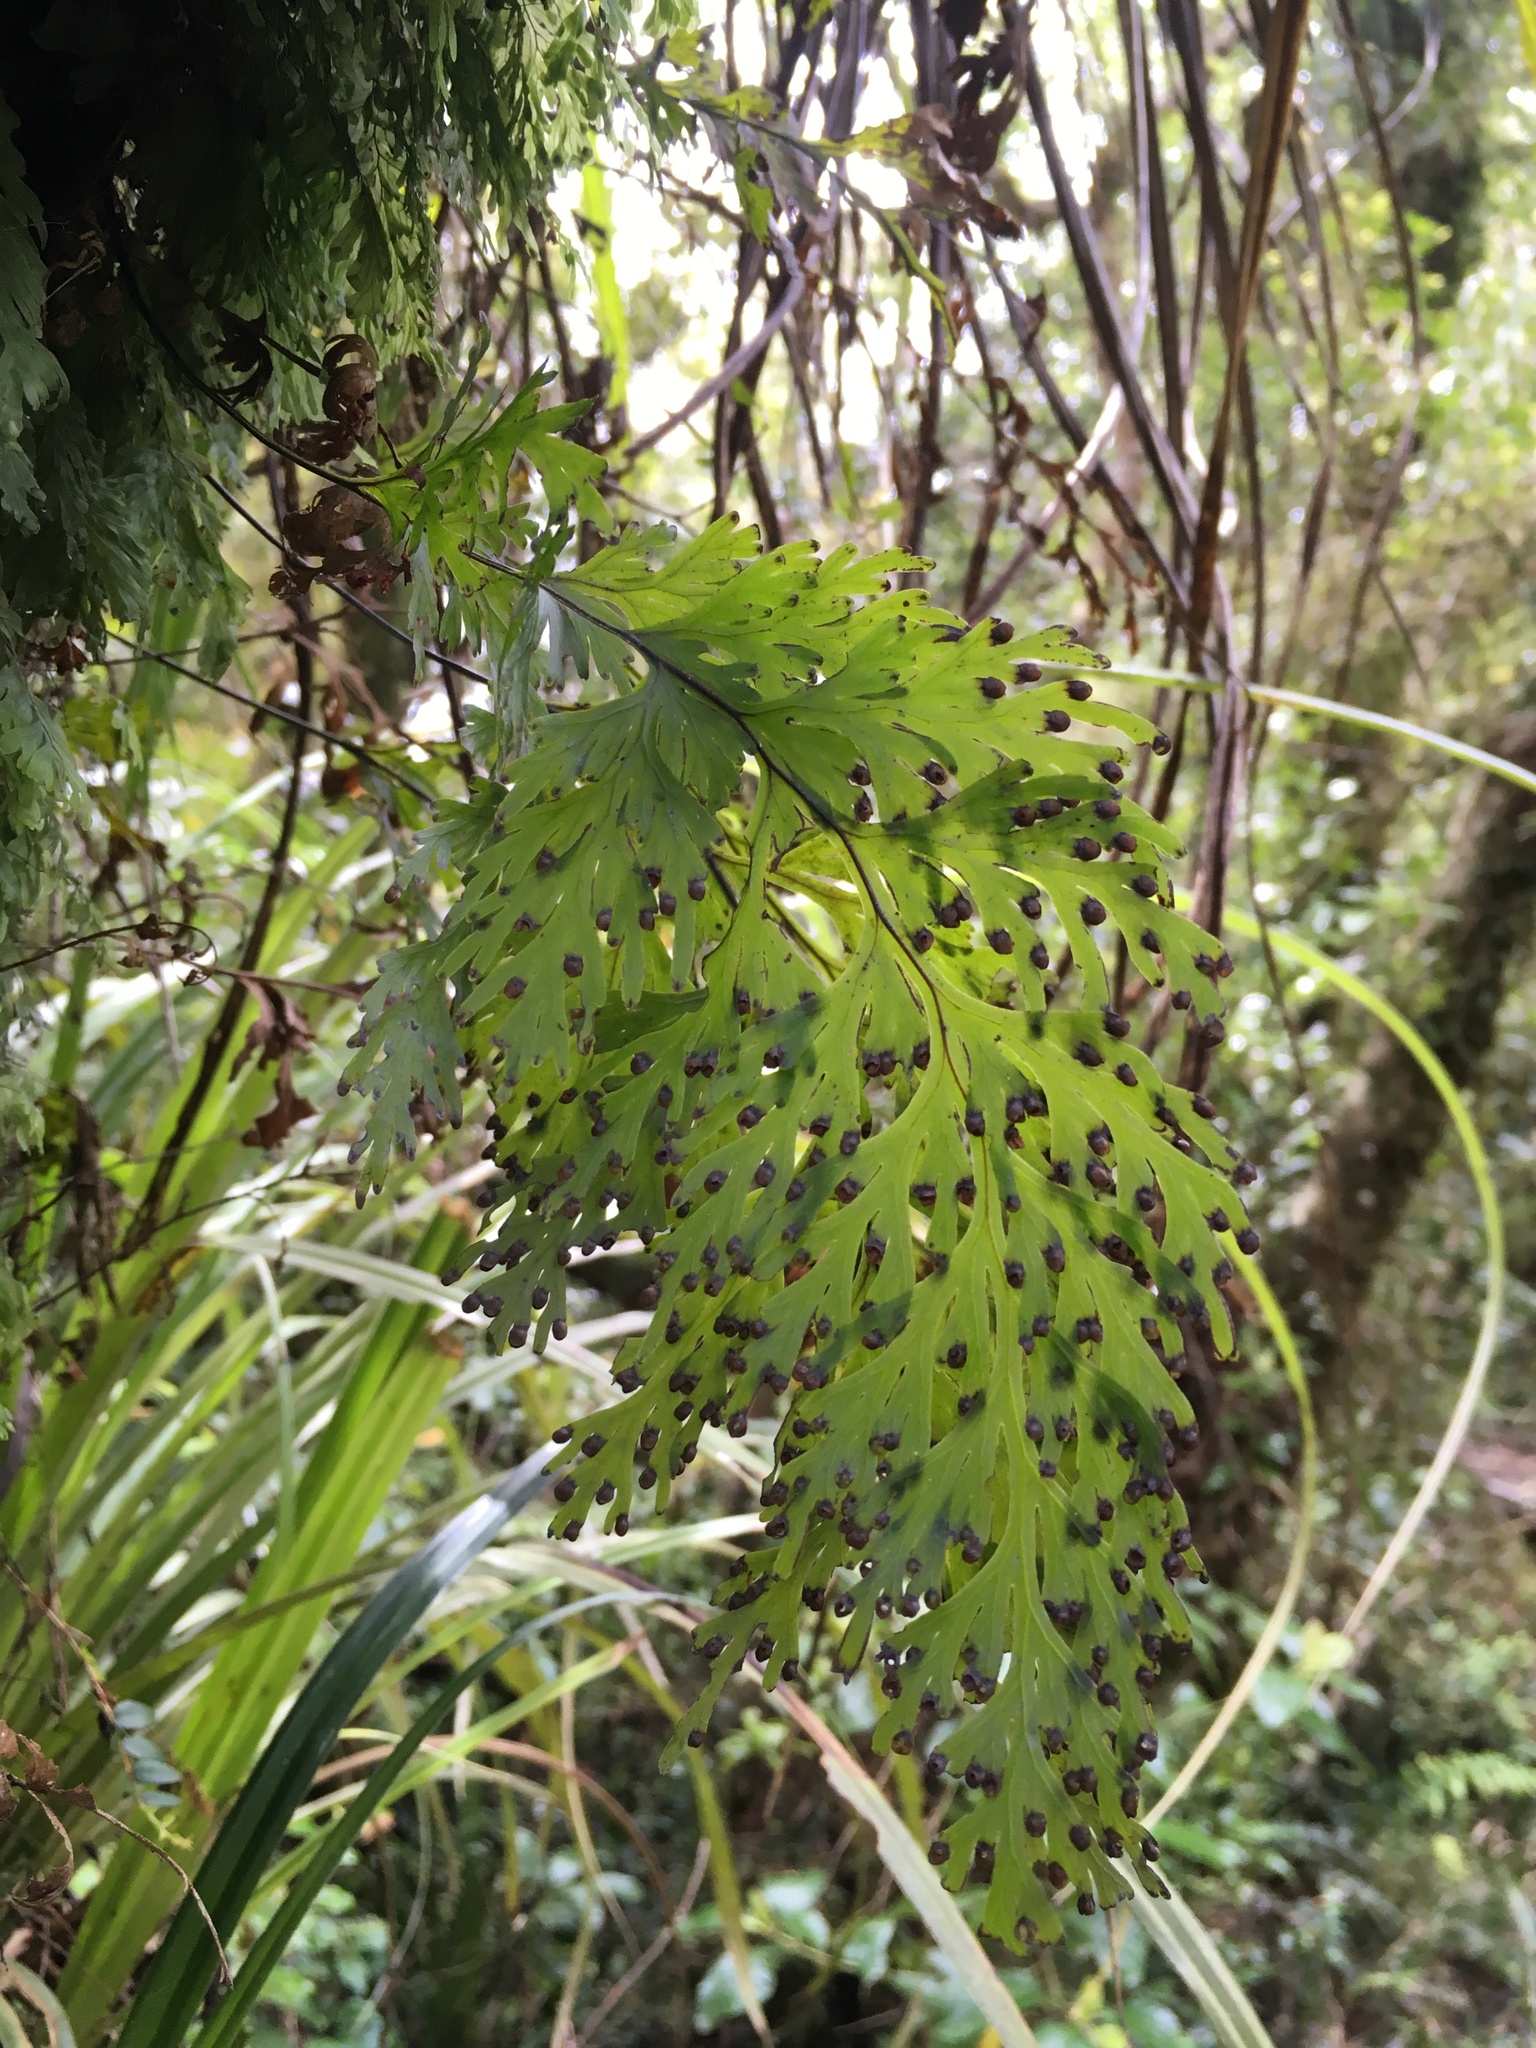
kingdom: Plantae
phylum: Tracheophyta
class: Polypodiopsida
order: Hymenophyllales
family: Hymenophyllaceae
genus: Hymenophyllum
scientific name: Hymenophyllum dilatatum
